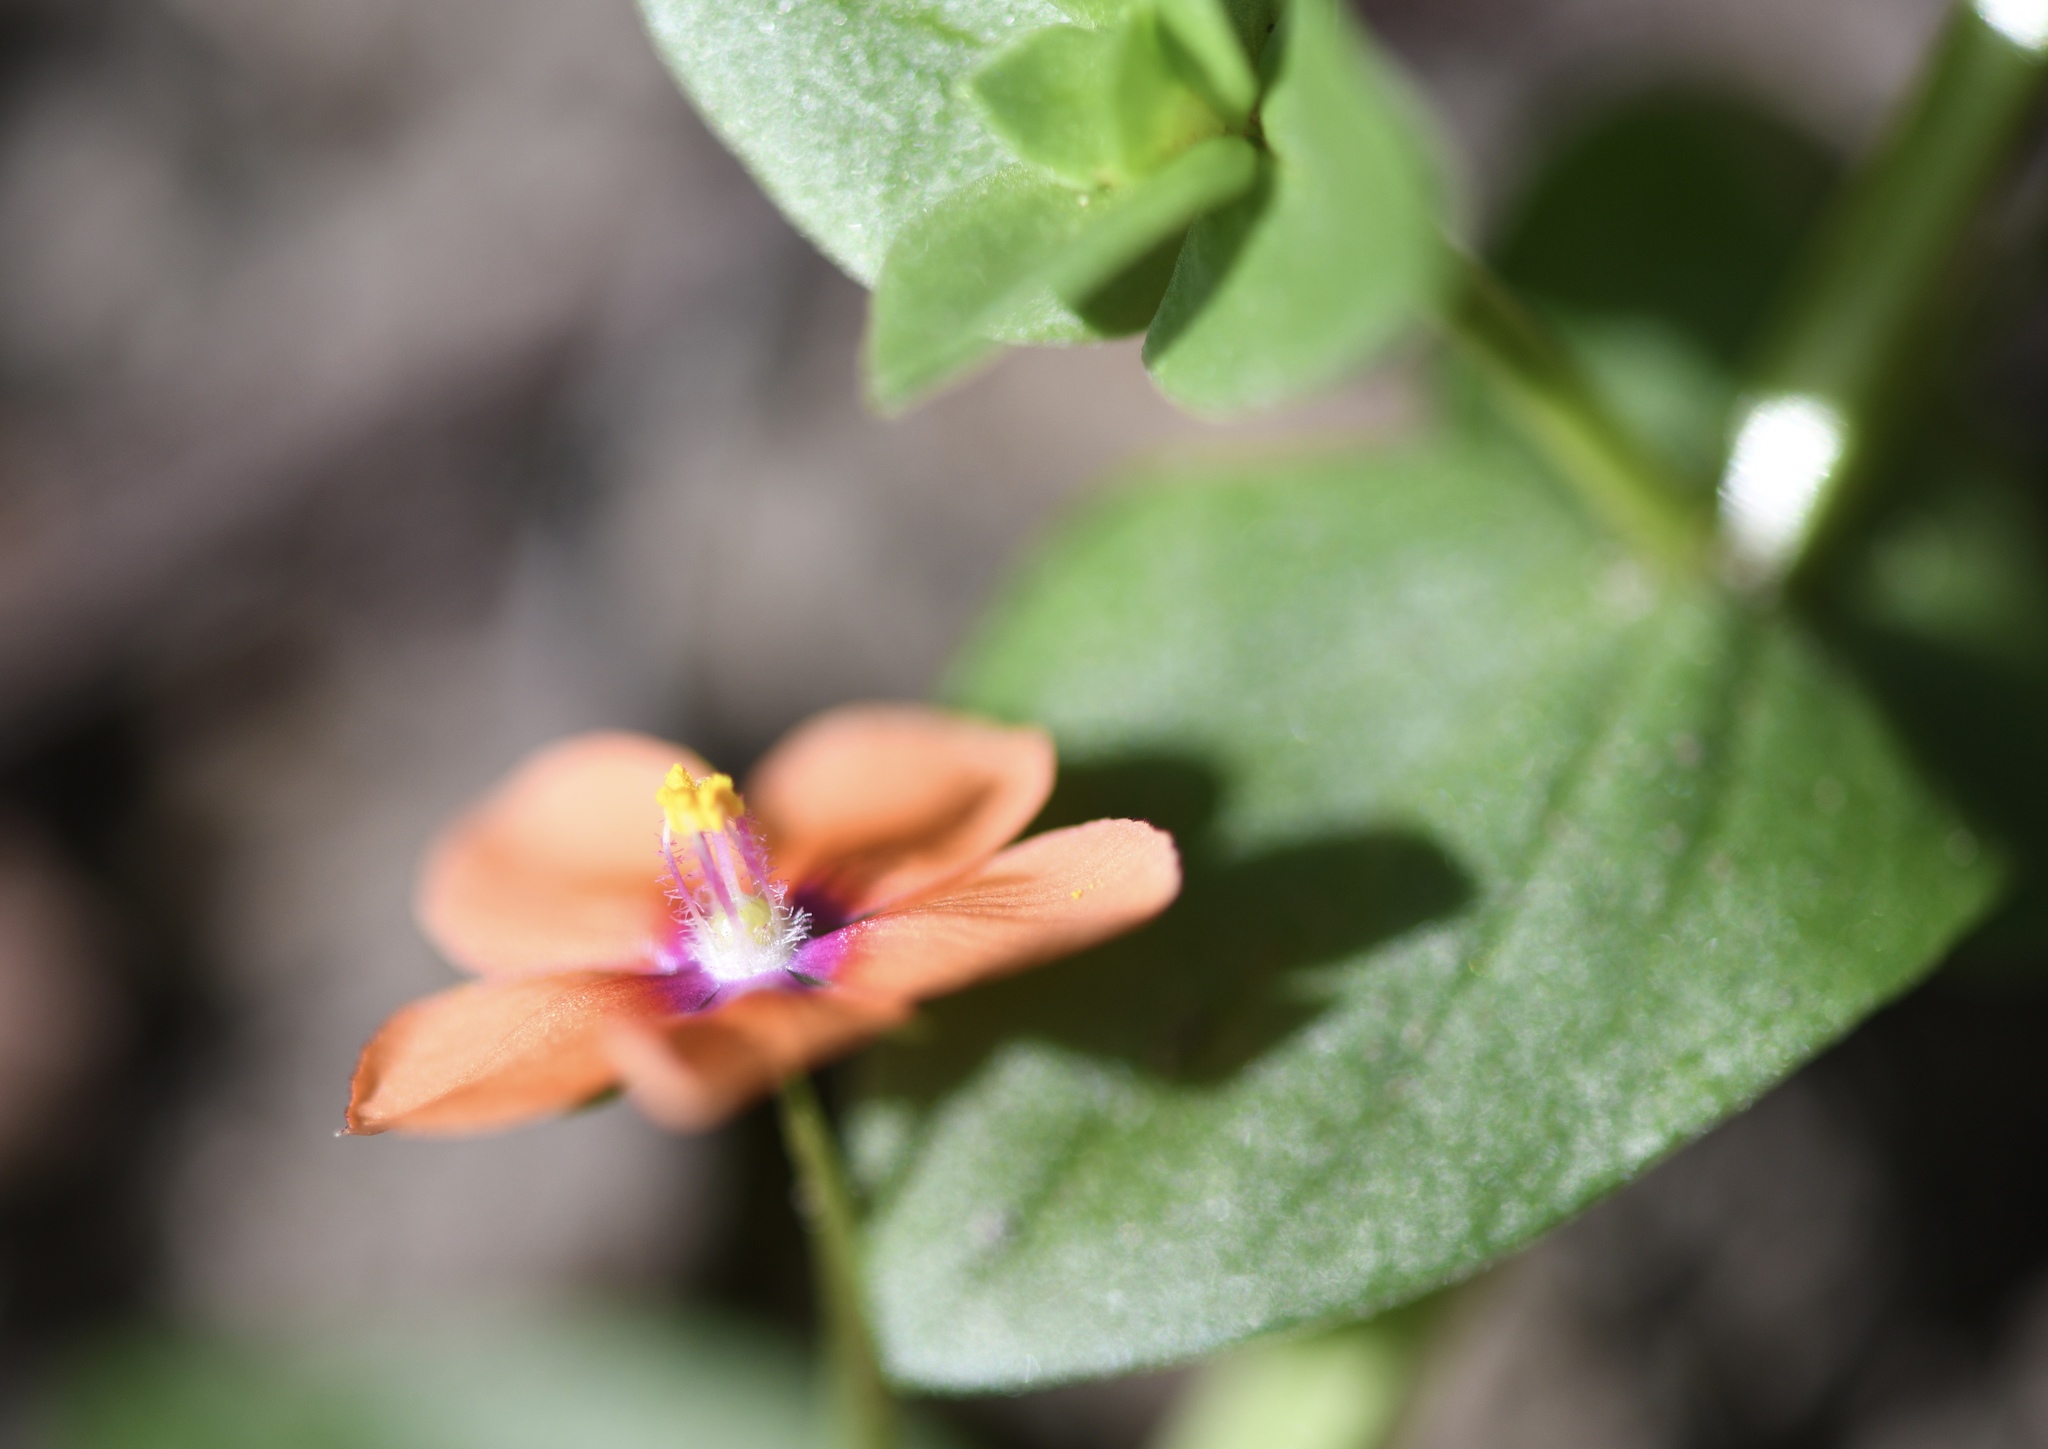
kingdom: Plantae
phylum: Tracheophyta
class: Magnoliopsida
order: Ericales
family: Primulaceae
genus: Lysimachia
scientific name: Lysimachia arvensis
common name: Scarlet pimpernel
